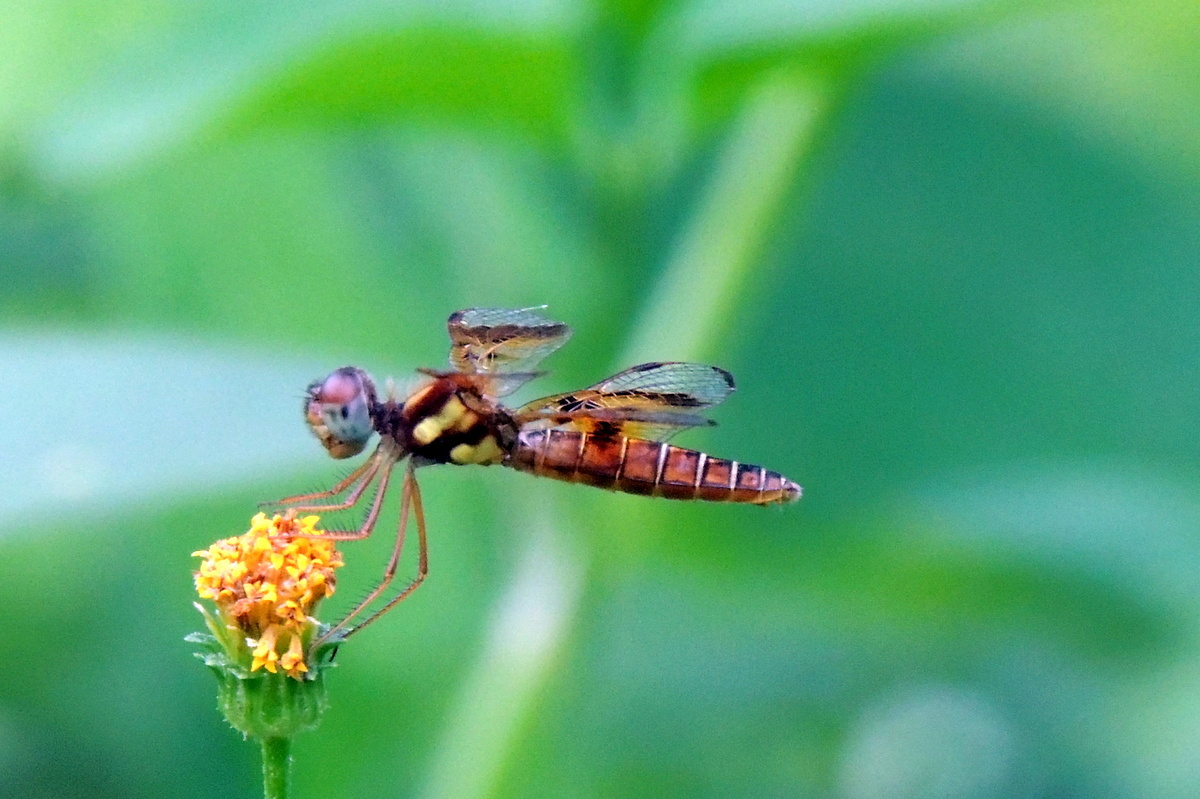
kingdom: Animalia
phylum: Arthropoda
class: Insecta
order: Odonata
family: Libellulidae
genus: Perithemis
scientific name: Perithemis tenera
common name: Eastern amberwing
